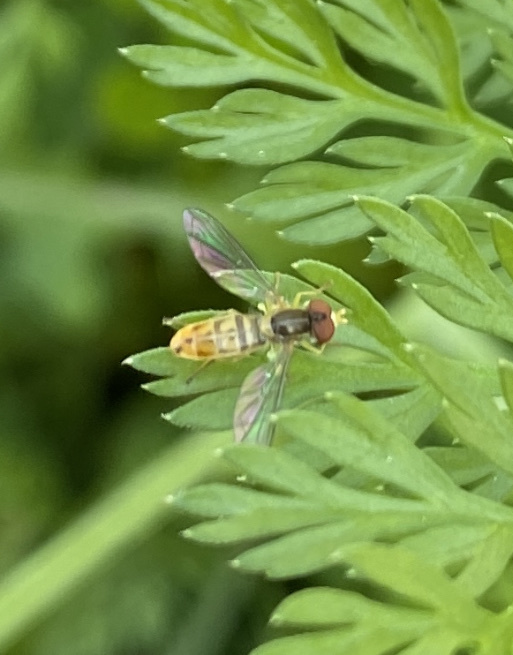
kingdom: Animalia
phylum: Arthropoda
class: Insecta
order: Diptera
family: Syrphidae
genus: Toxomerus
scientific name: Toxomerus marginatus
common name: Syrphid fly
